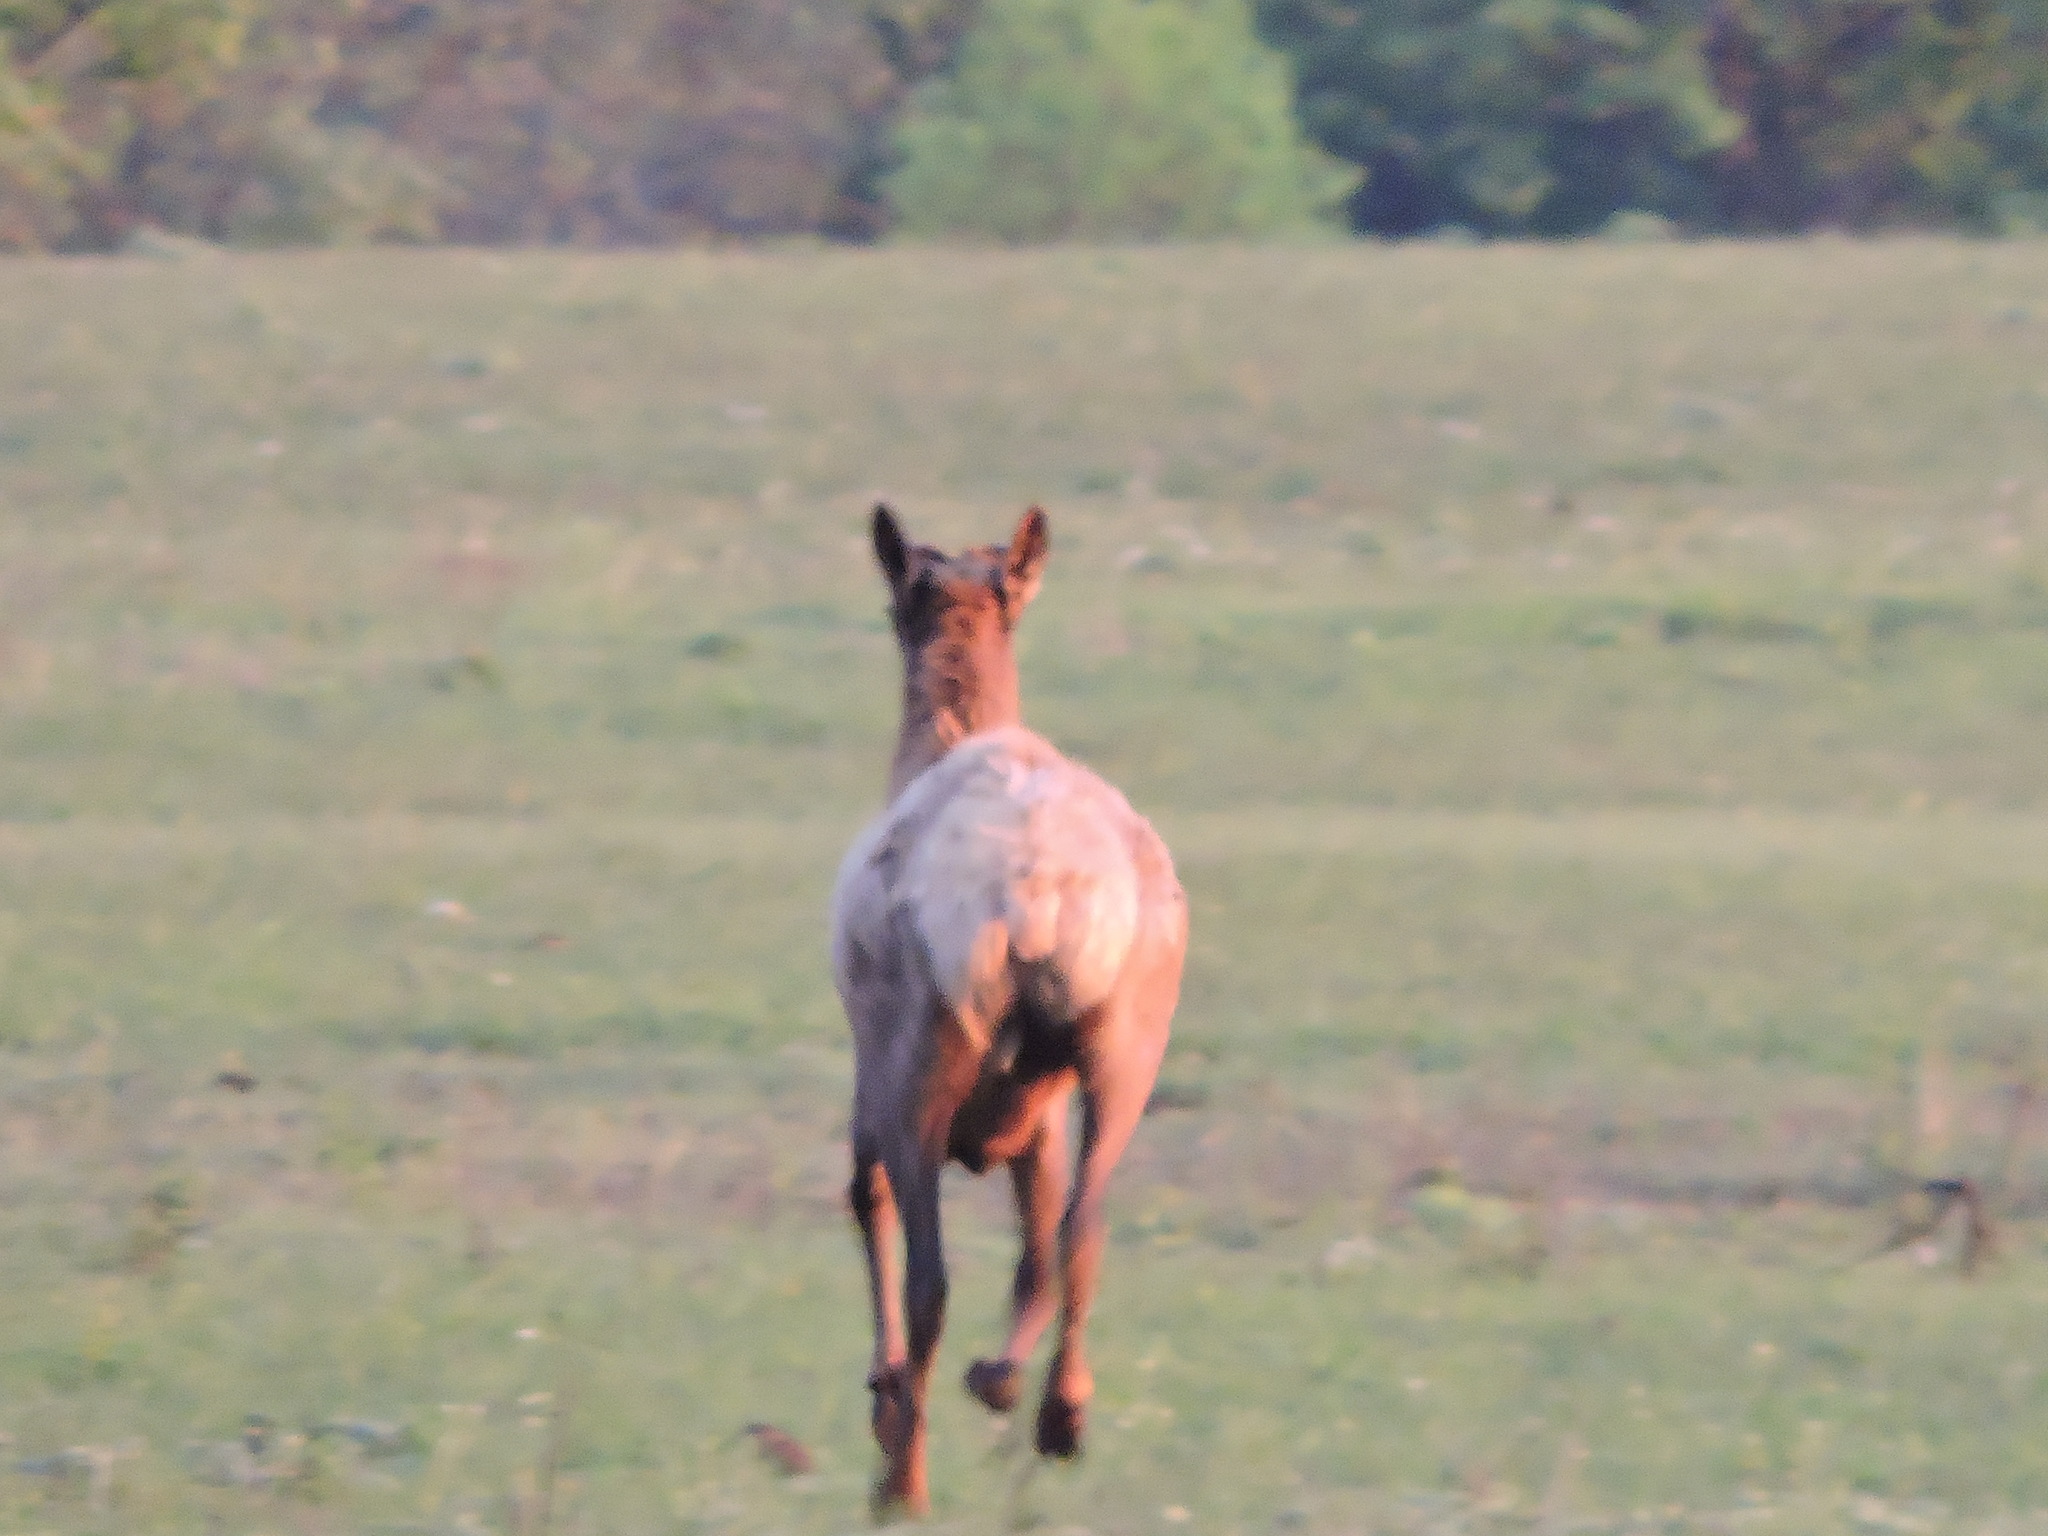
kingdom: Animalia
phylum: Chordata
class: Mammalia
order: Artiodactyla
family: Cervidae
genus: Cervus
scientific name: Cervus elaphus
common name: Red deer
